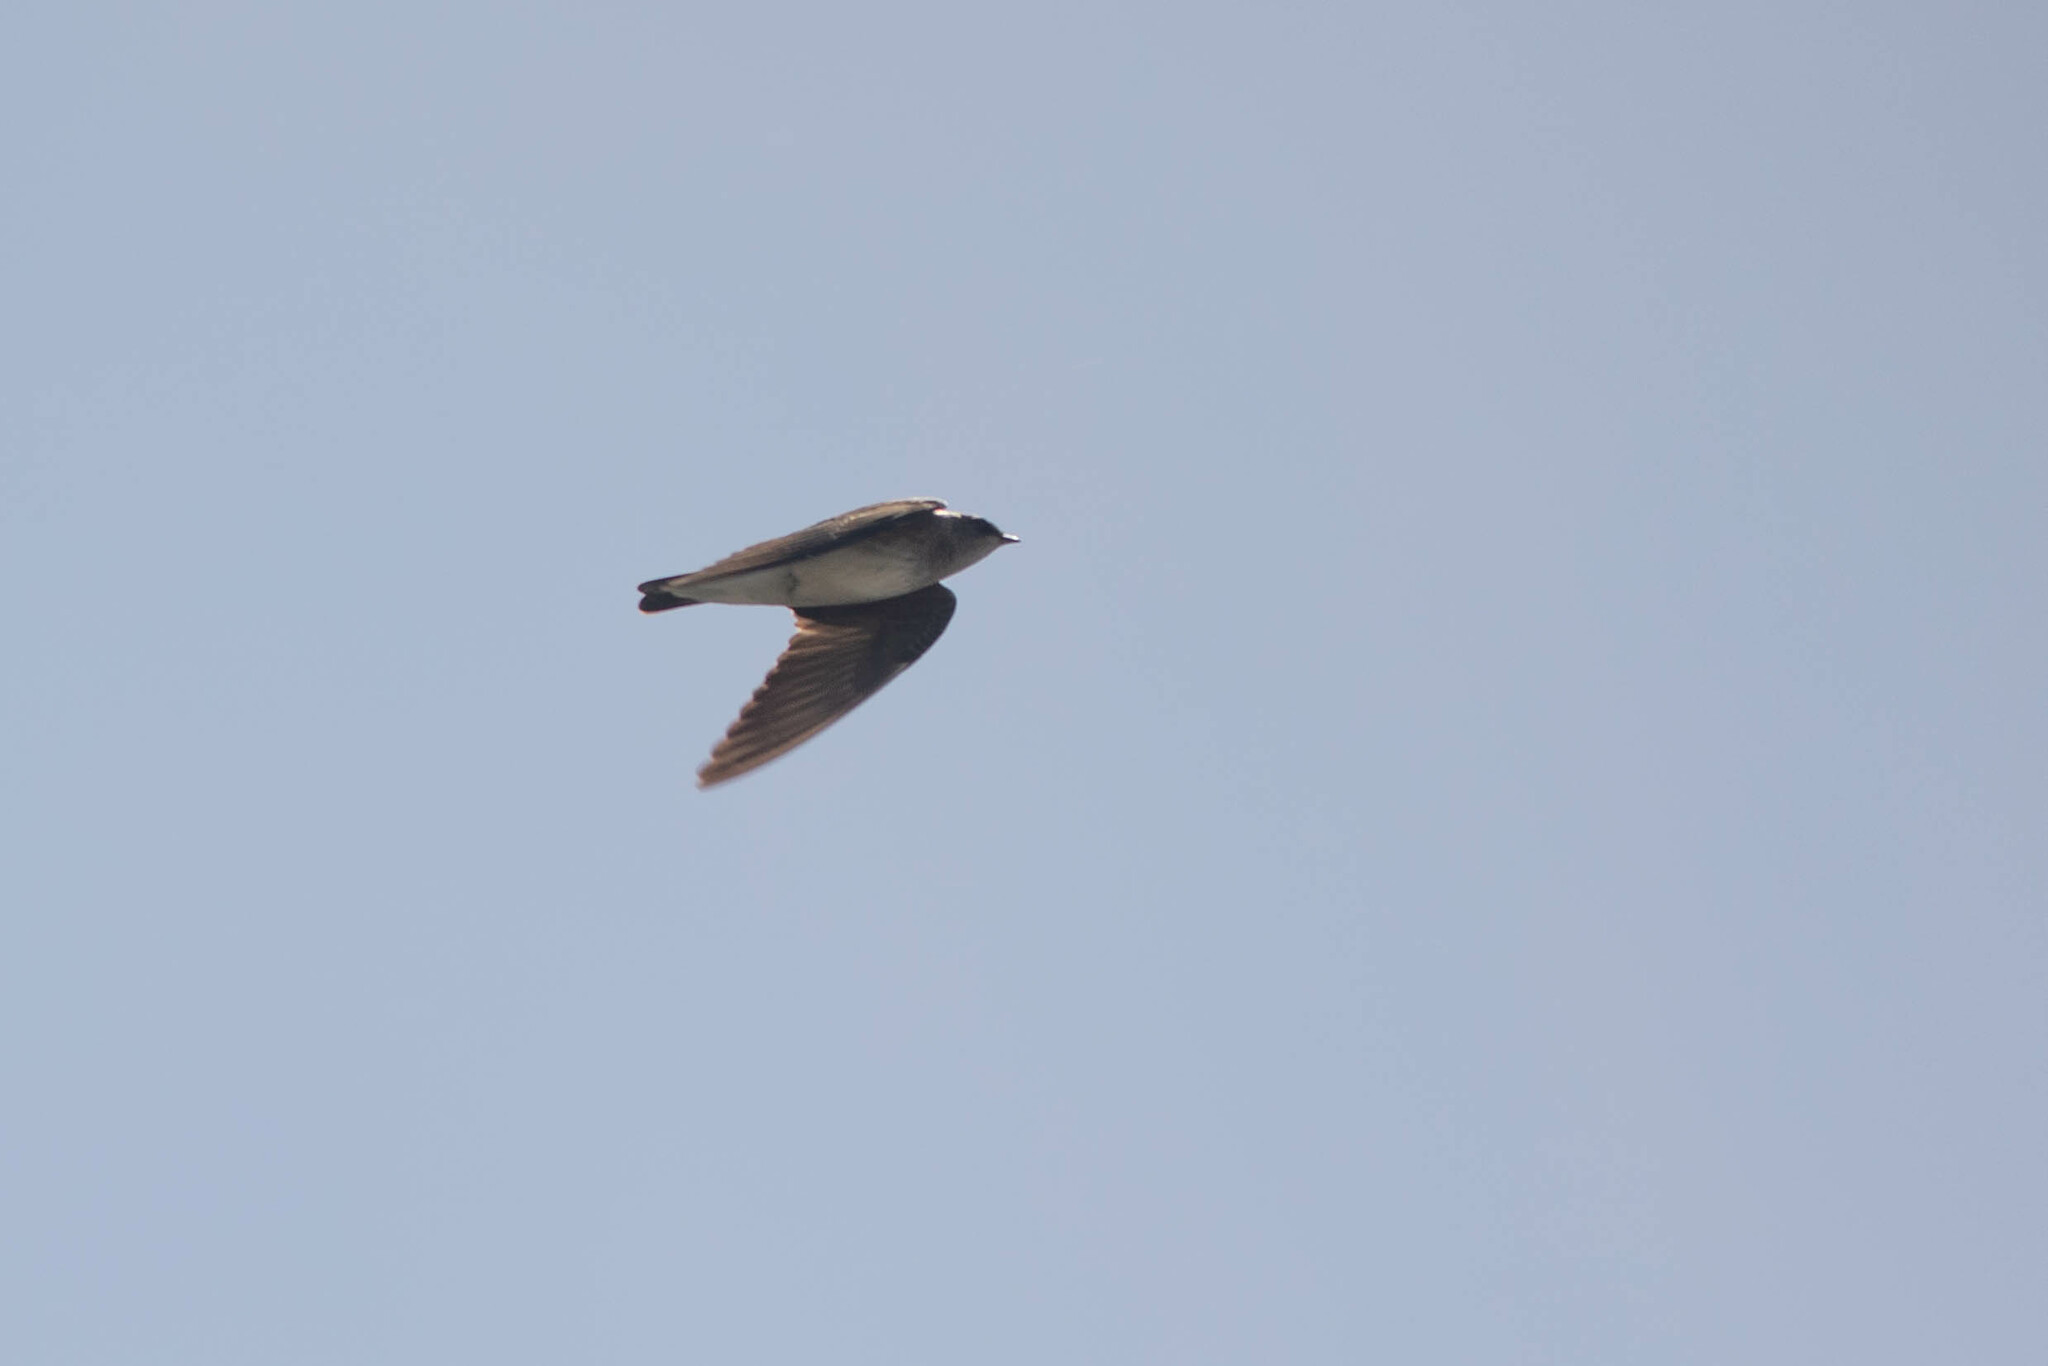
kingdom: Animalia
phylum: Chordata
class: Aves
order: Passeriformes
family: Hirundinidae
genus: Stelgidopteryx
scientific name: Stelgidopteryx serripennis
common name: Northern rough-winged swallow
